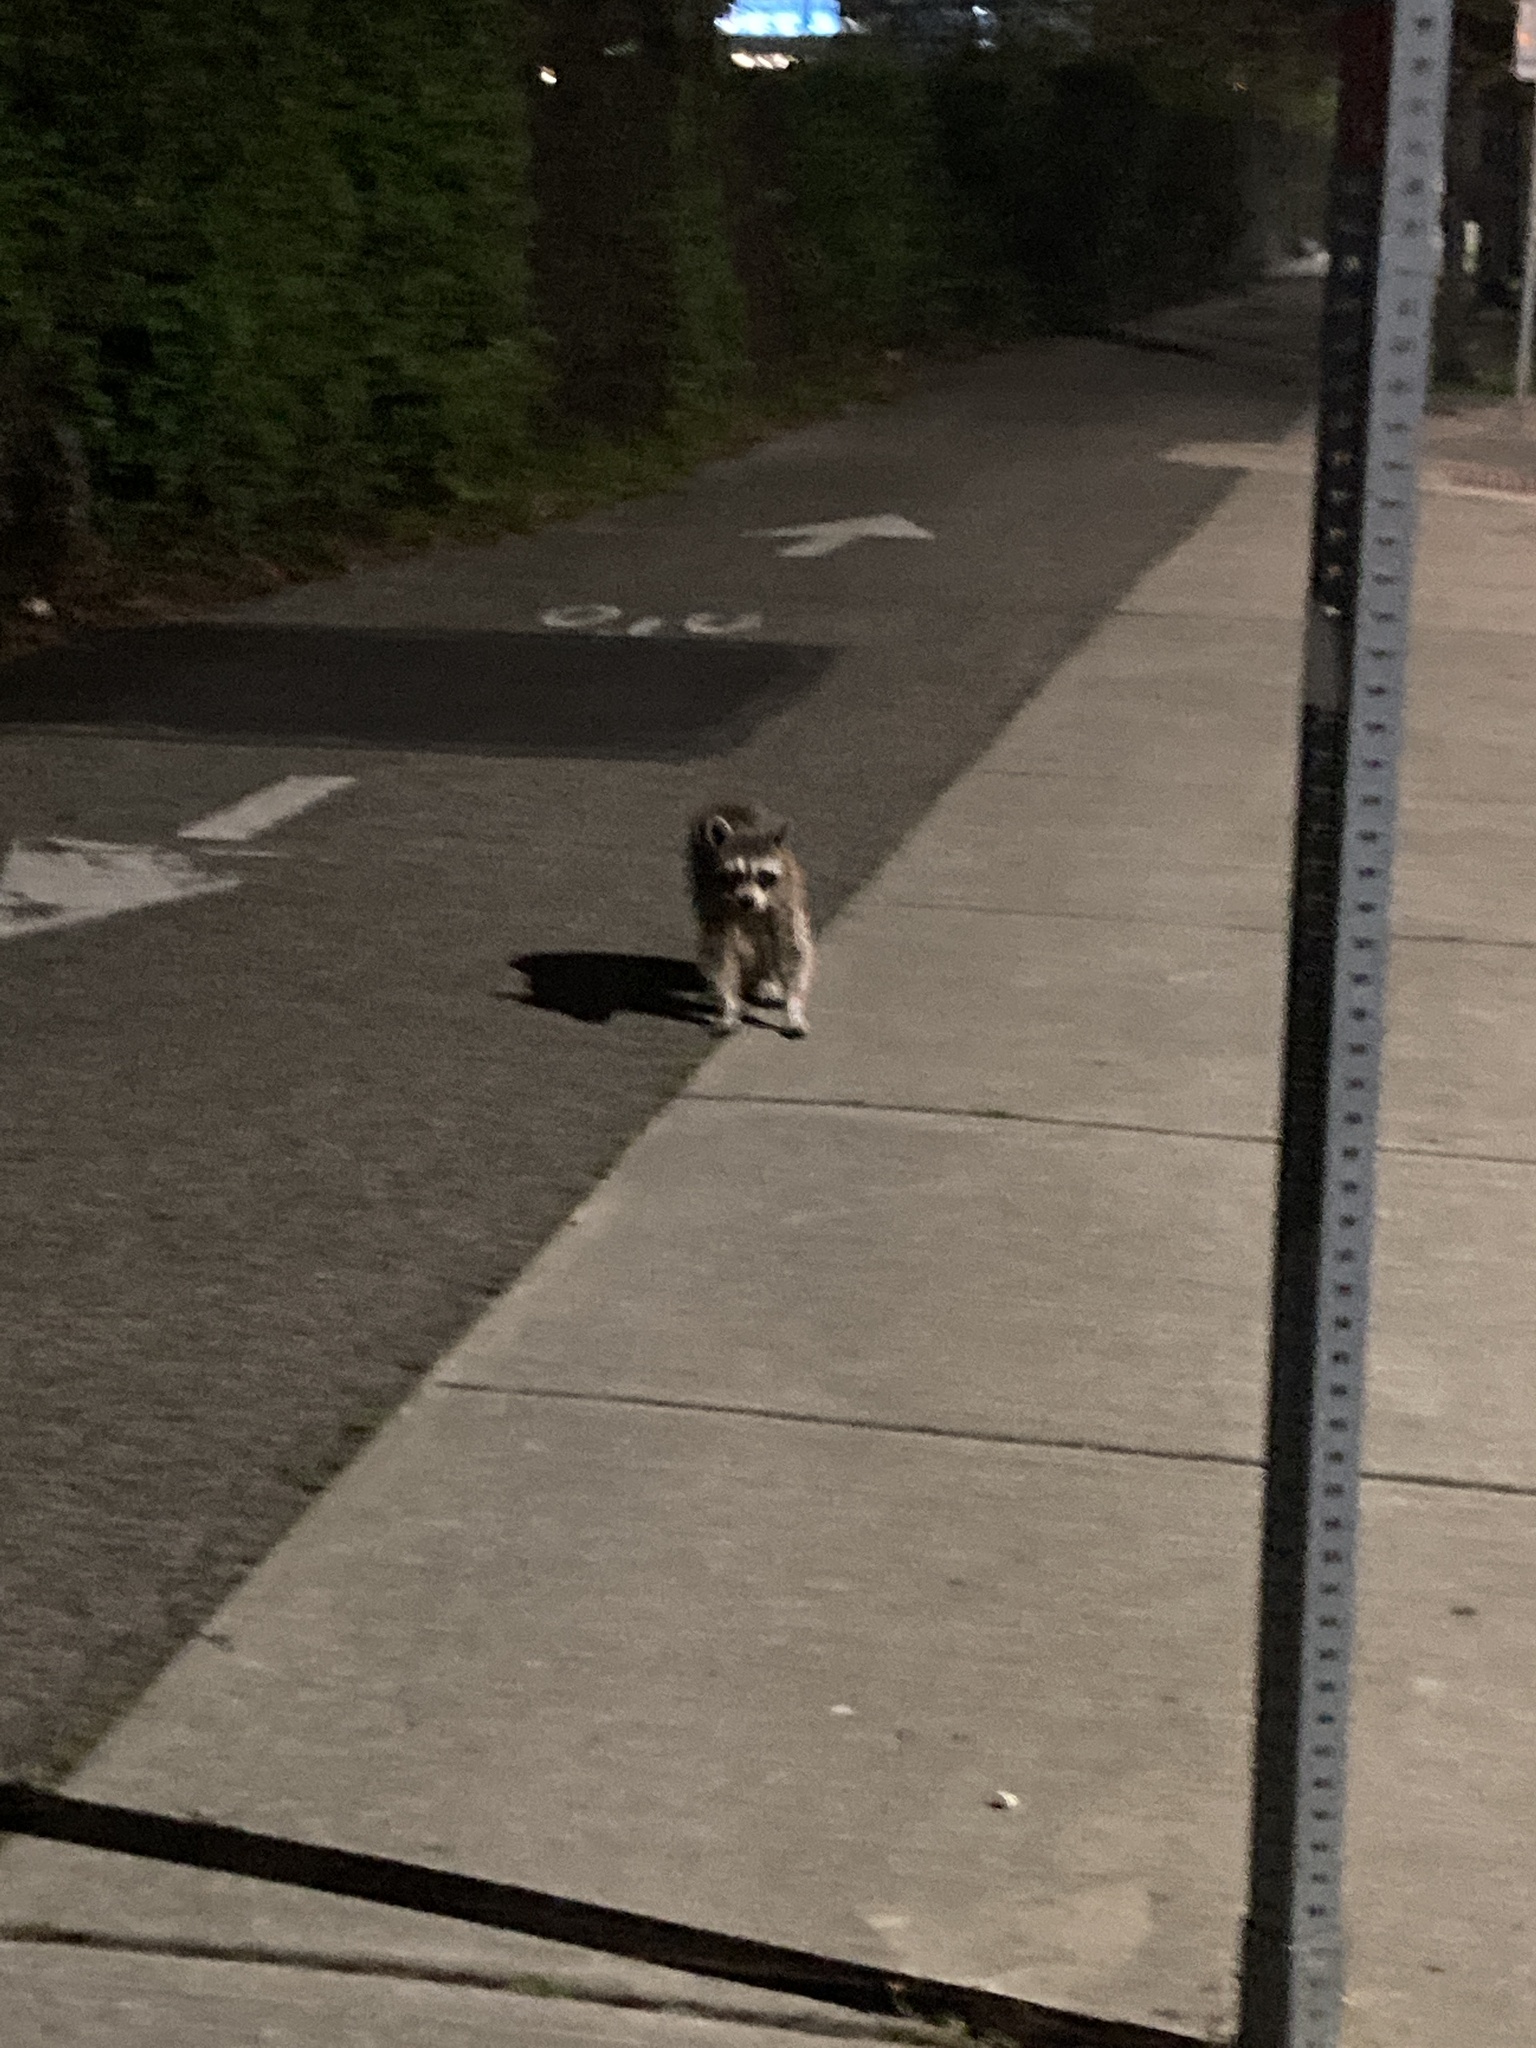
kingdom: Animalia
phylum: Chordata
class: Mammalia
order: Carnivora
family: Procyonidae
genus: Procyon
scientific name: Procyon lotor
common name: Raccoon
